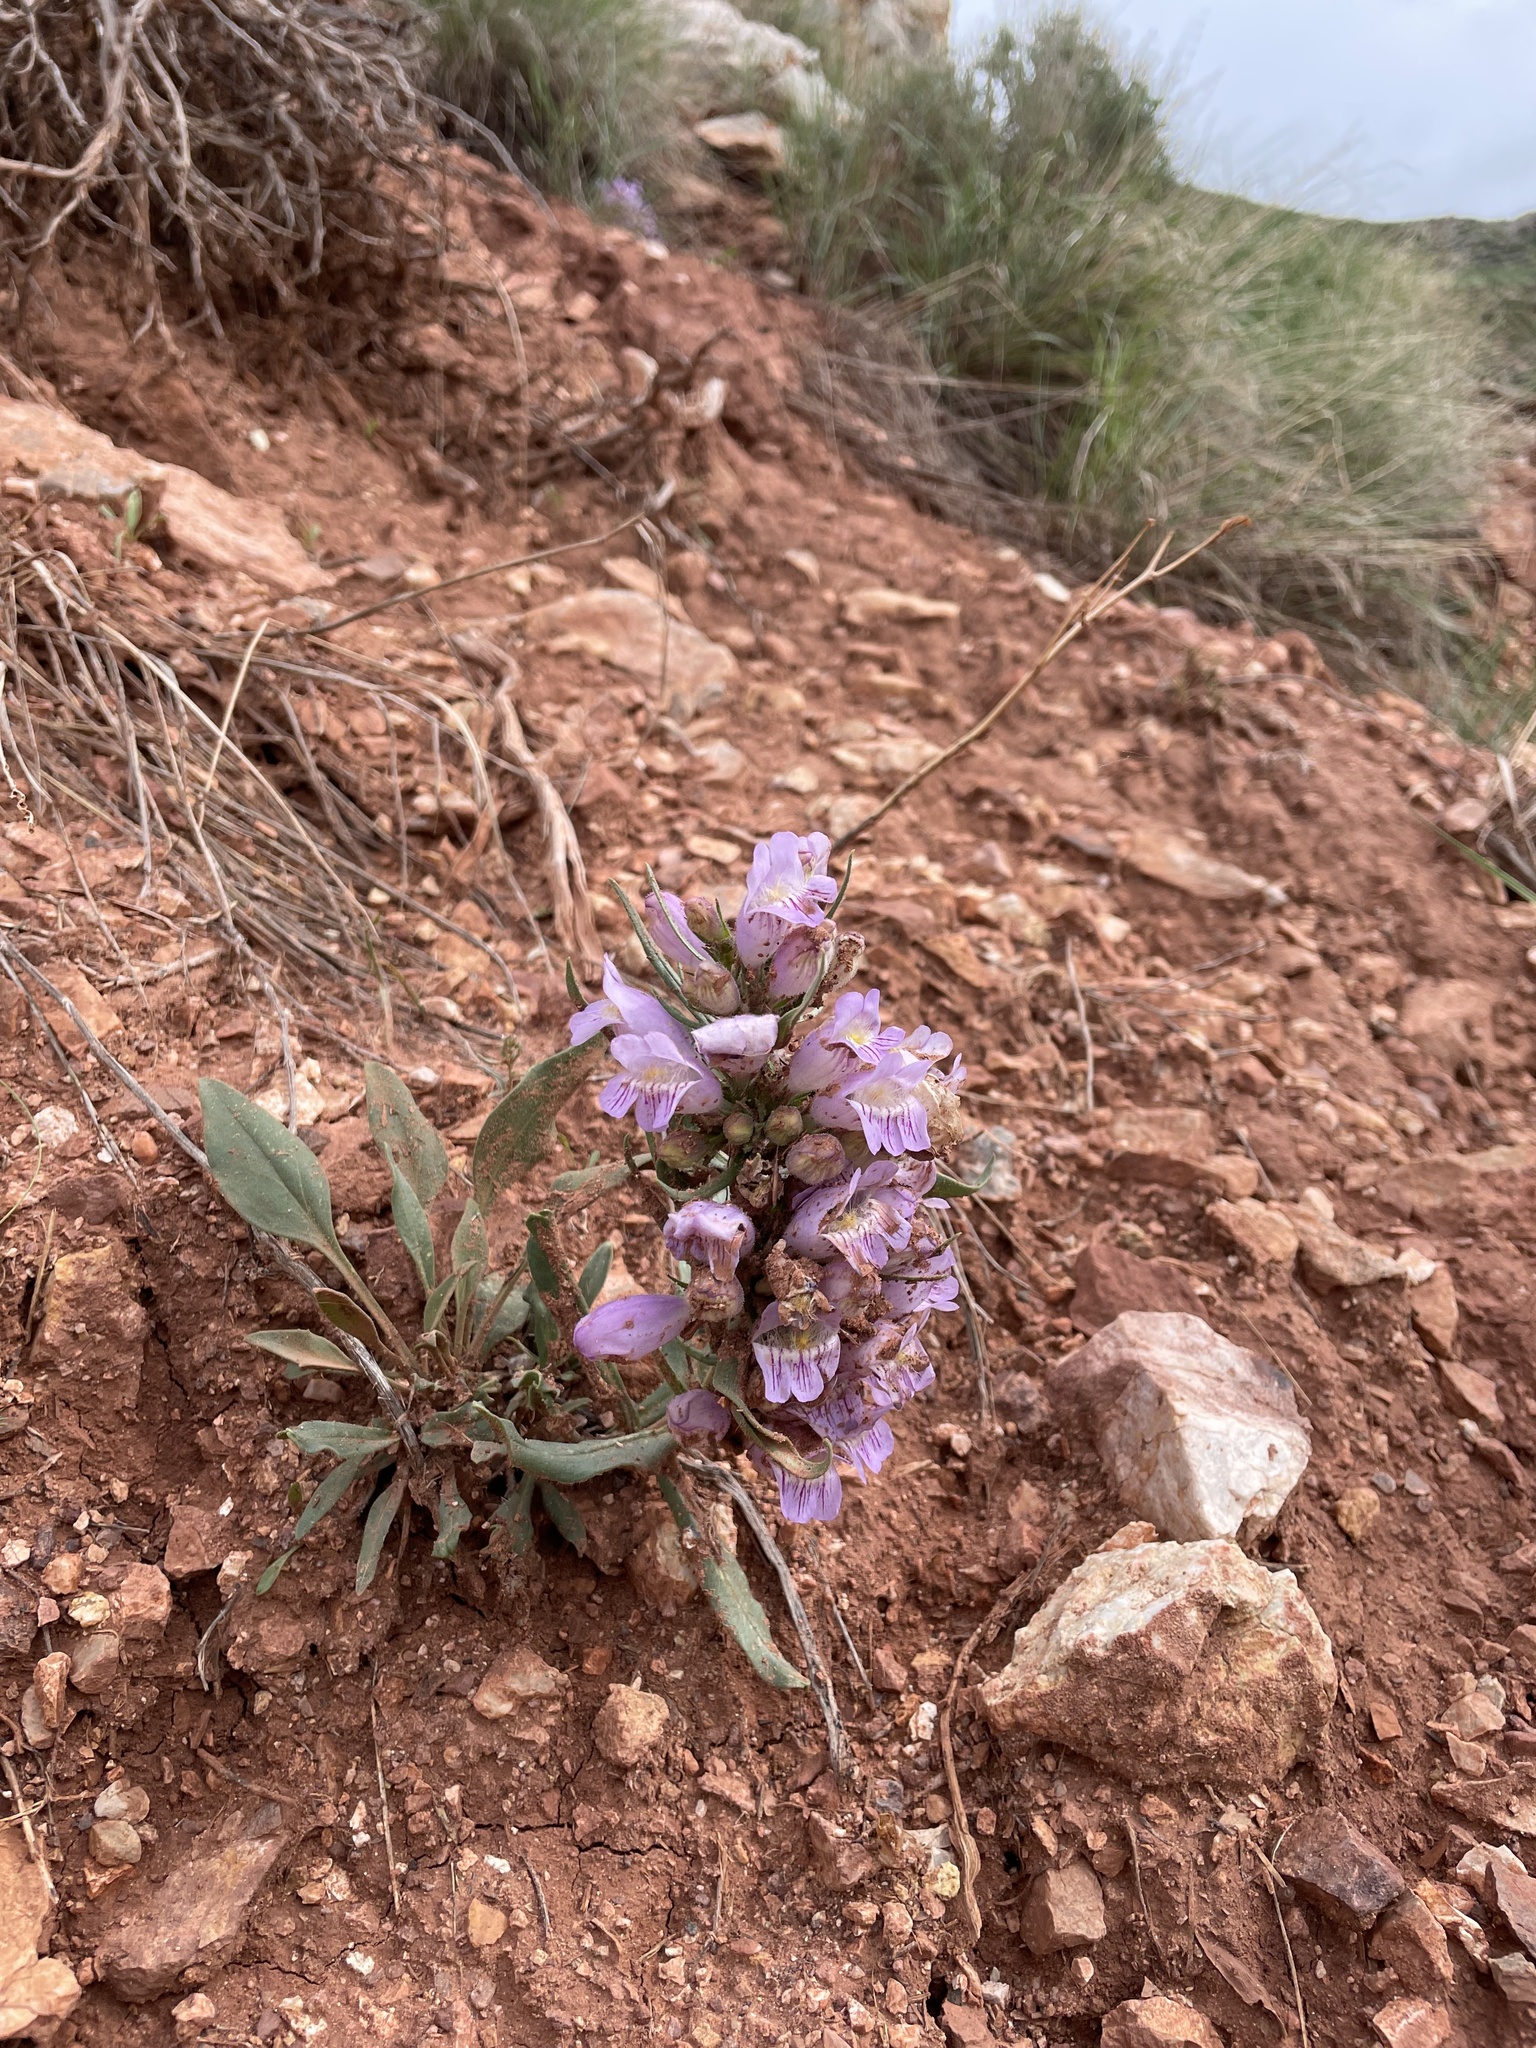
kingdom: Plantae
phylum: Tracheophyta
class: Magnoliopsida
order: Lamiales
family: Plantaginaceae
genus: Penstemon
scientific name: Penstemon eriantherus
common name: Crested beardtongue
